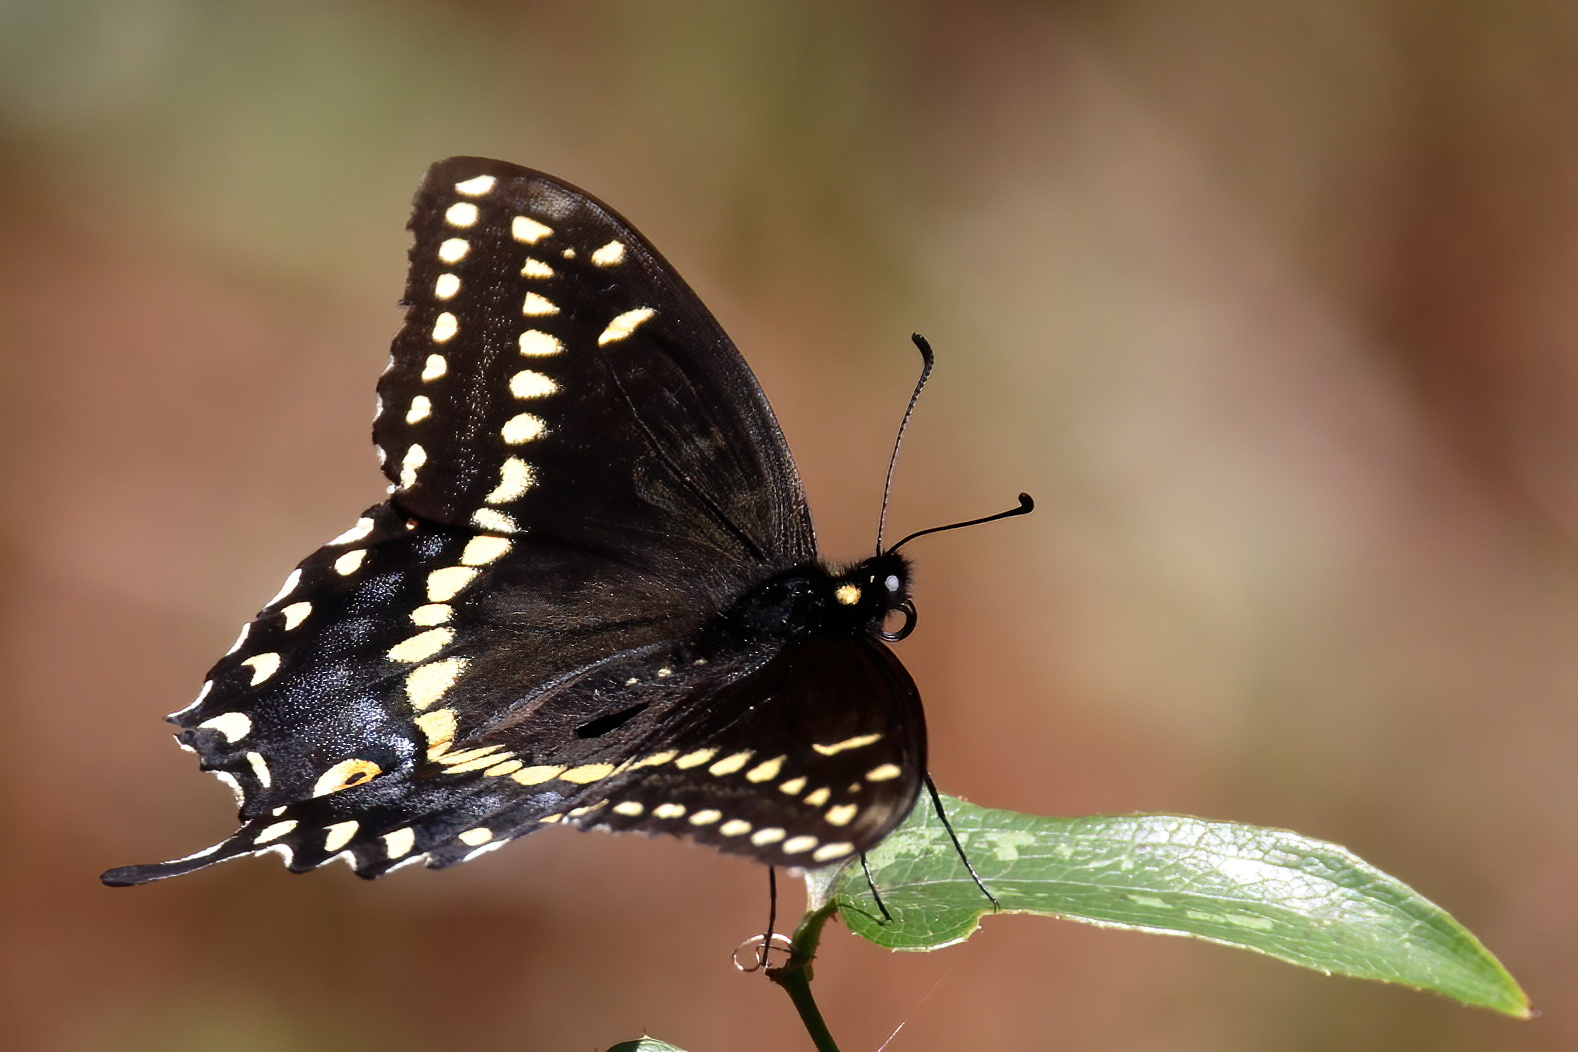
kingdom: Animalia
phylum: Arthropoda
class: Insecta
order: Lepidoptera
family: Papilionidae
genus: Papilio
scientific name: Papilio polyxenes
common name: Black swallowtail
